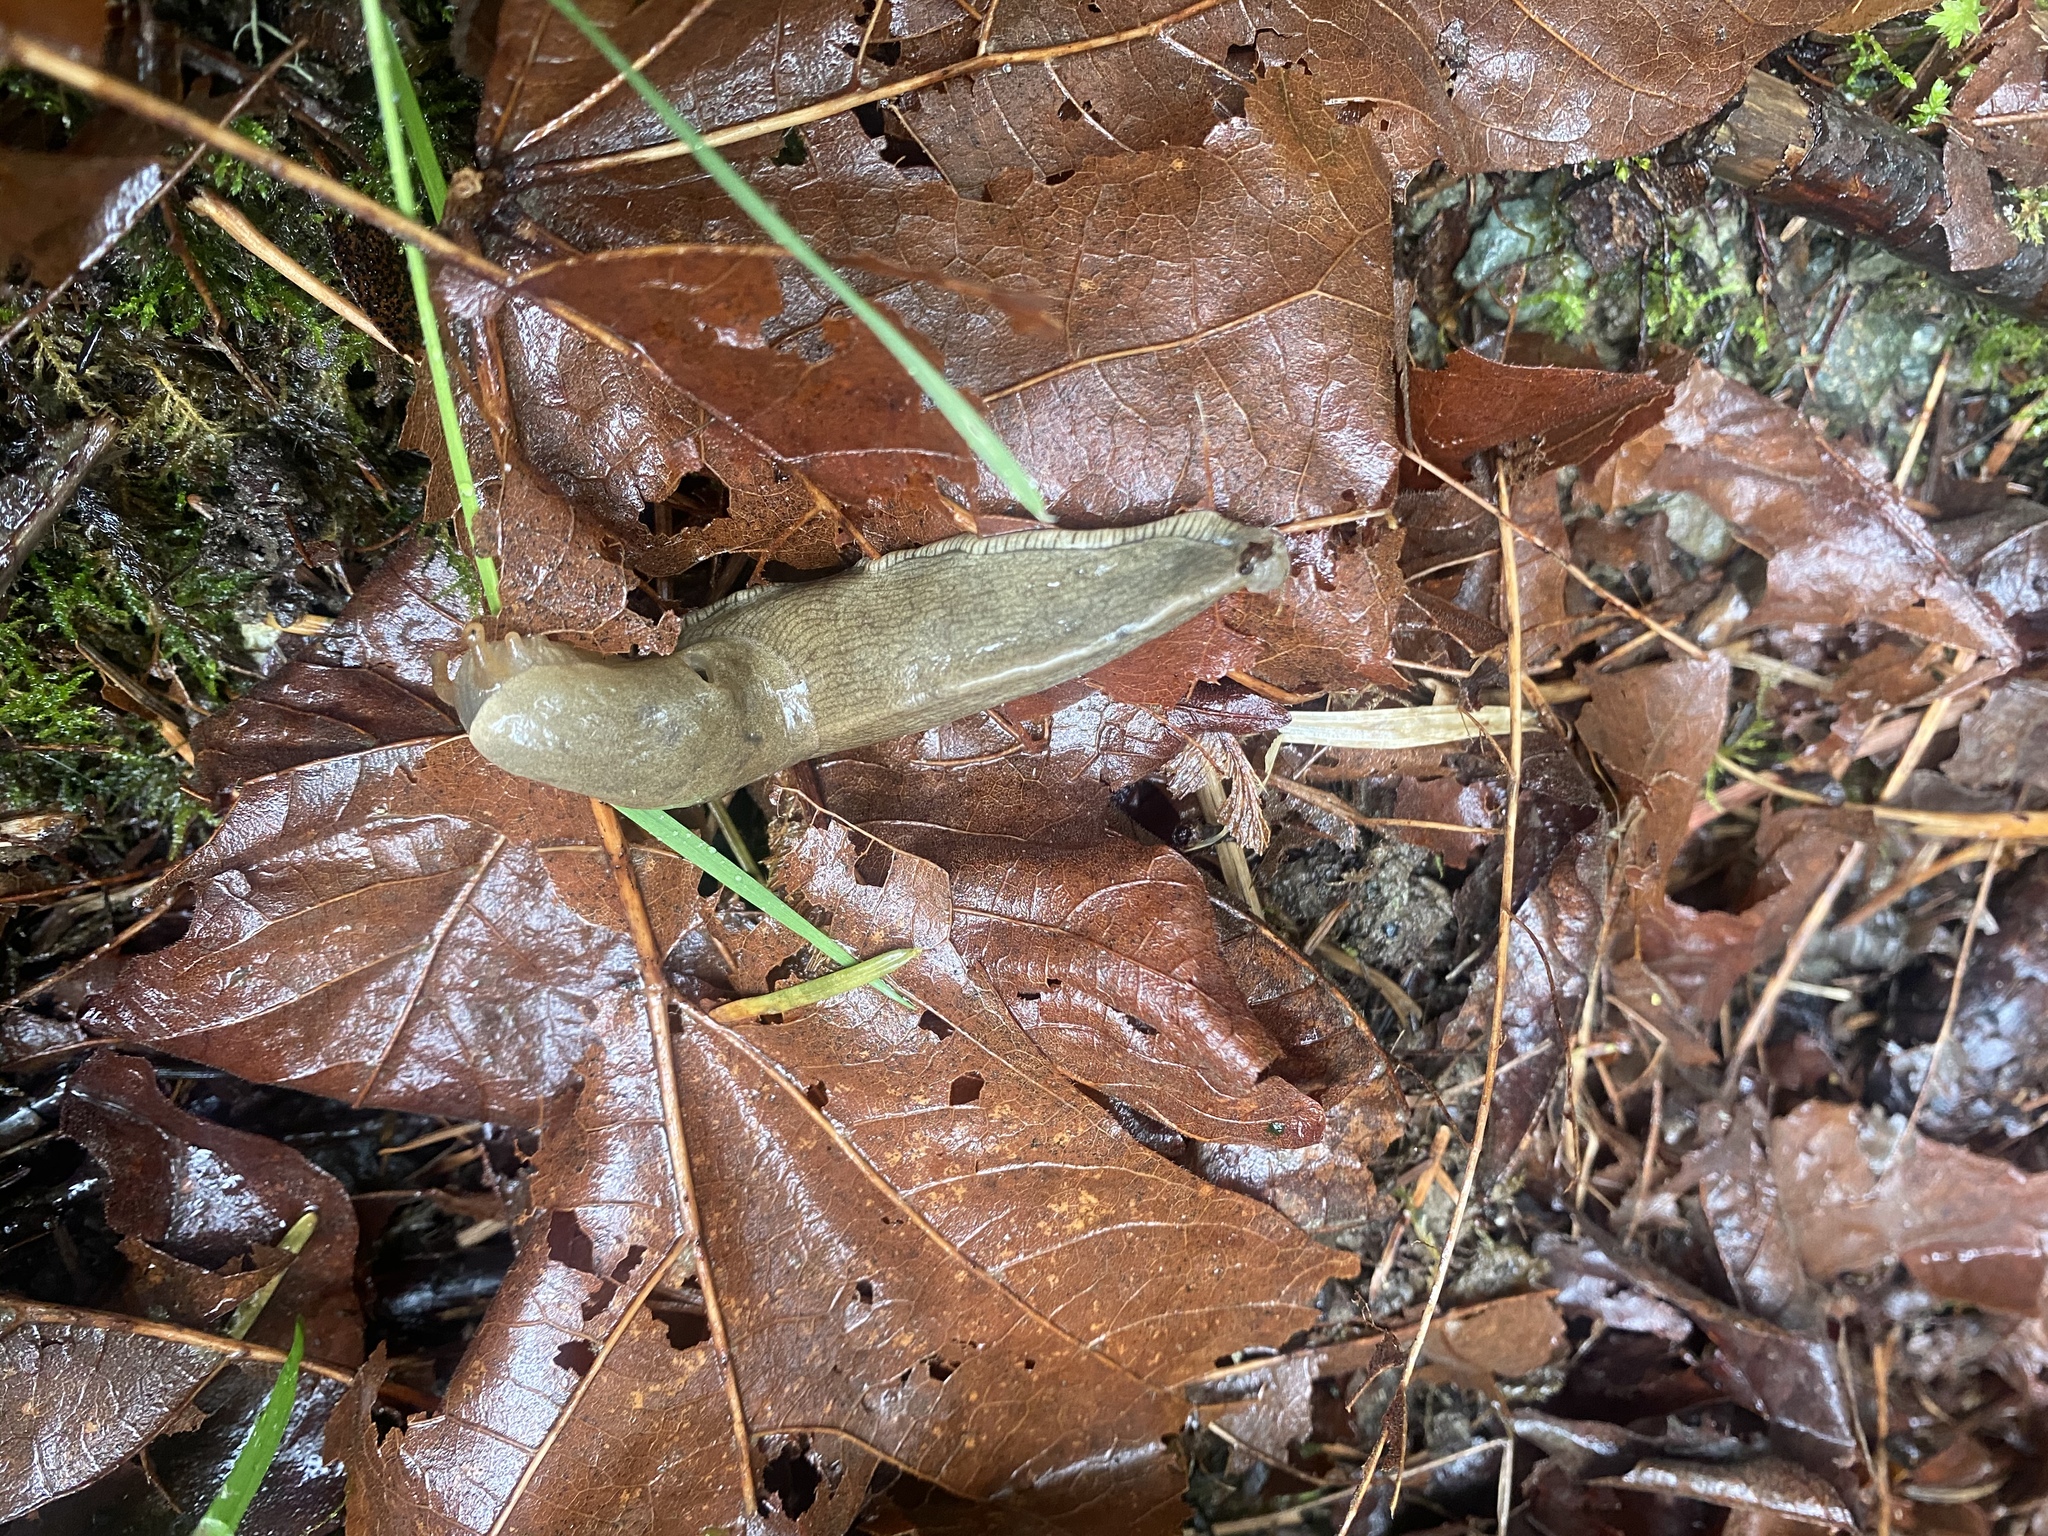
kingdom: Animalia
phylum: Mollusca
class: Gastropoda
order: Stylommatophora
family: Ariolimacidae
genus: Ariolimax
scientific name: Ariolimax columbianus
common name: Pacific banana slug
